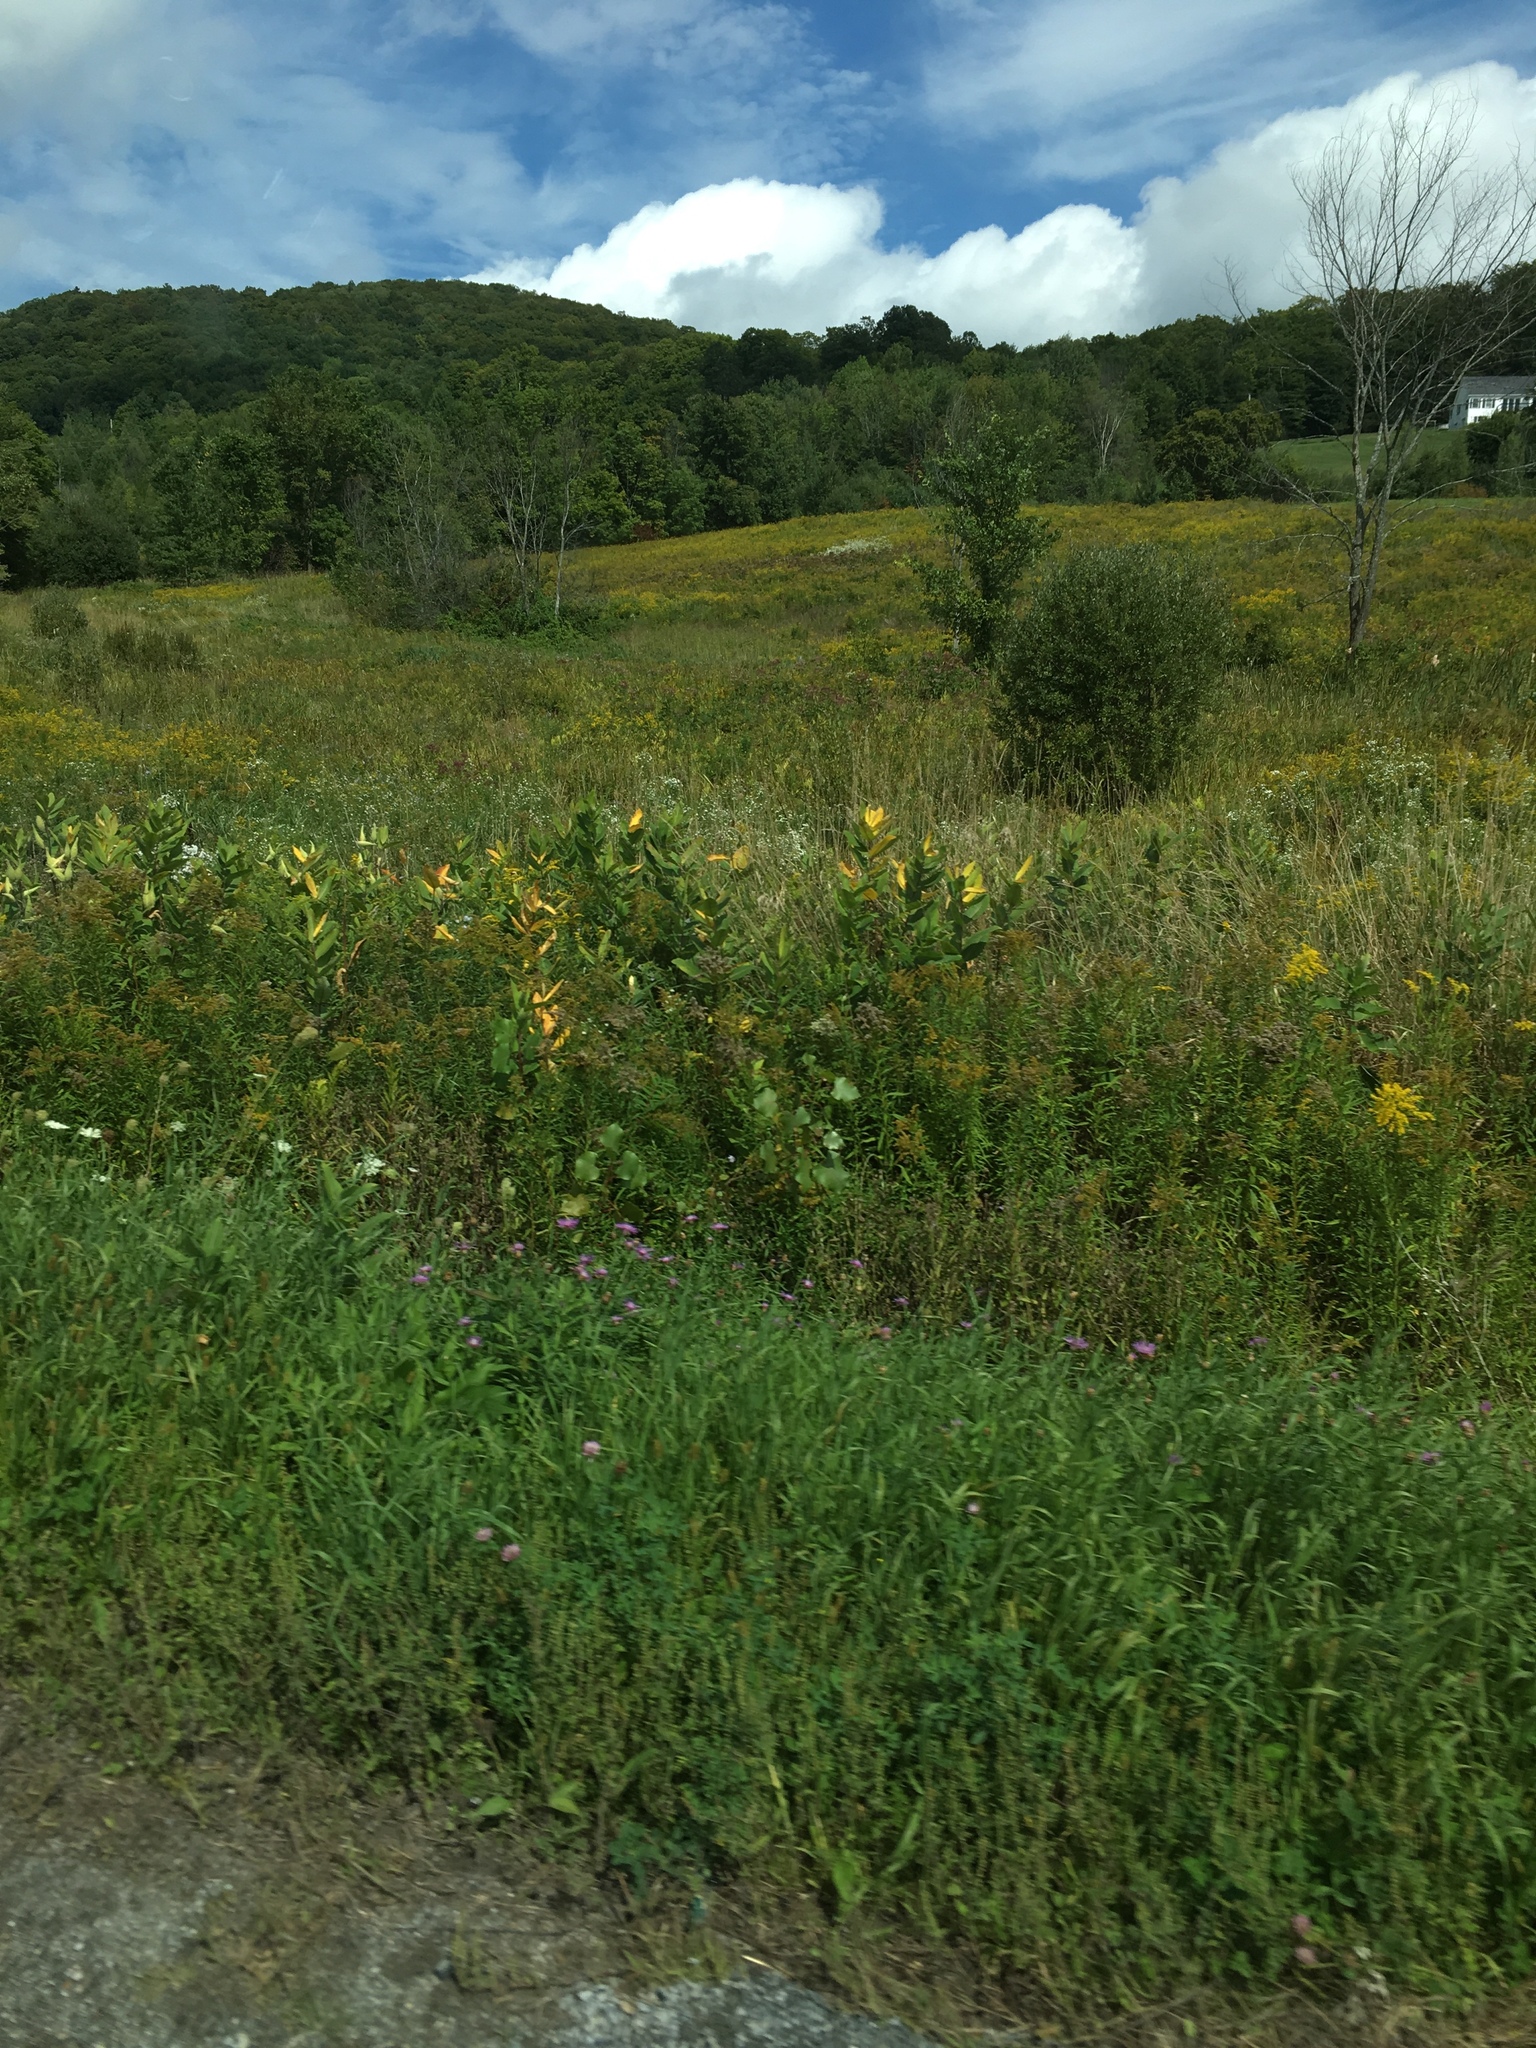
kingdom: Plantae
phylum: Tracheophyta
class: Magnoliopsida
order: Gentianales
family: Apocynaceae
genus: Asclepias
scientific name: Asclepias syriaca
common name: Common milkweed
